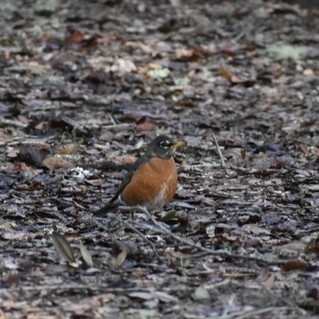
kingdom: Animalia
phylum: Chordata
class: Aves
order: Passeriformes
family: Turdidae
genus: Turdus
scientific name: Turdus migratorius
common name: American robin
